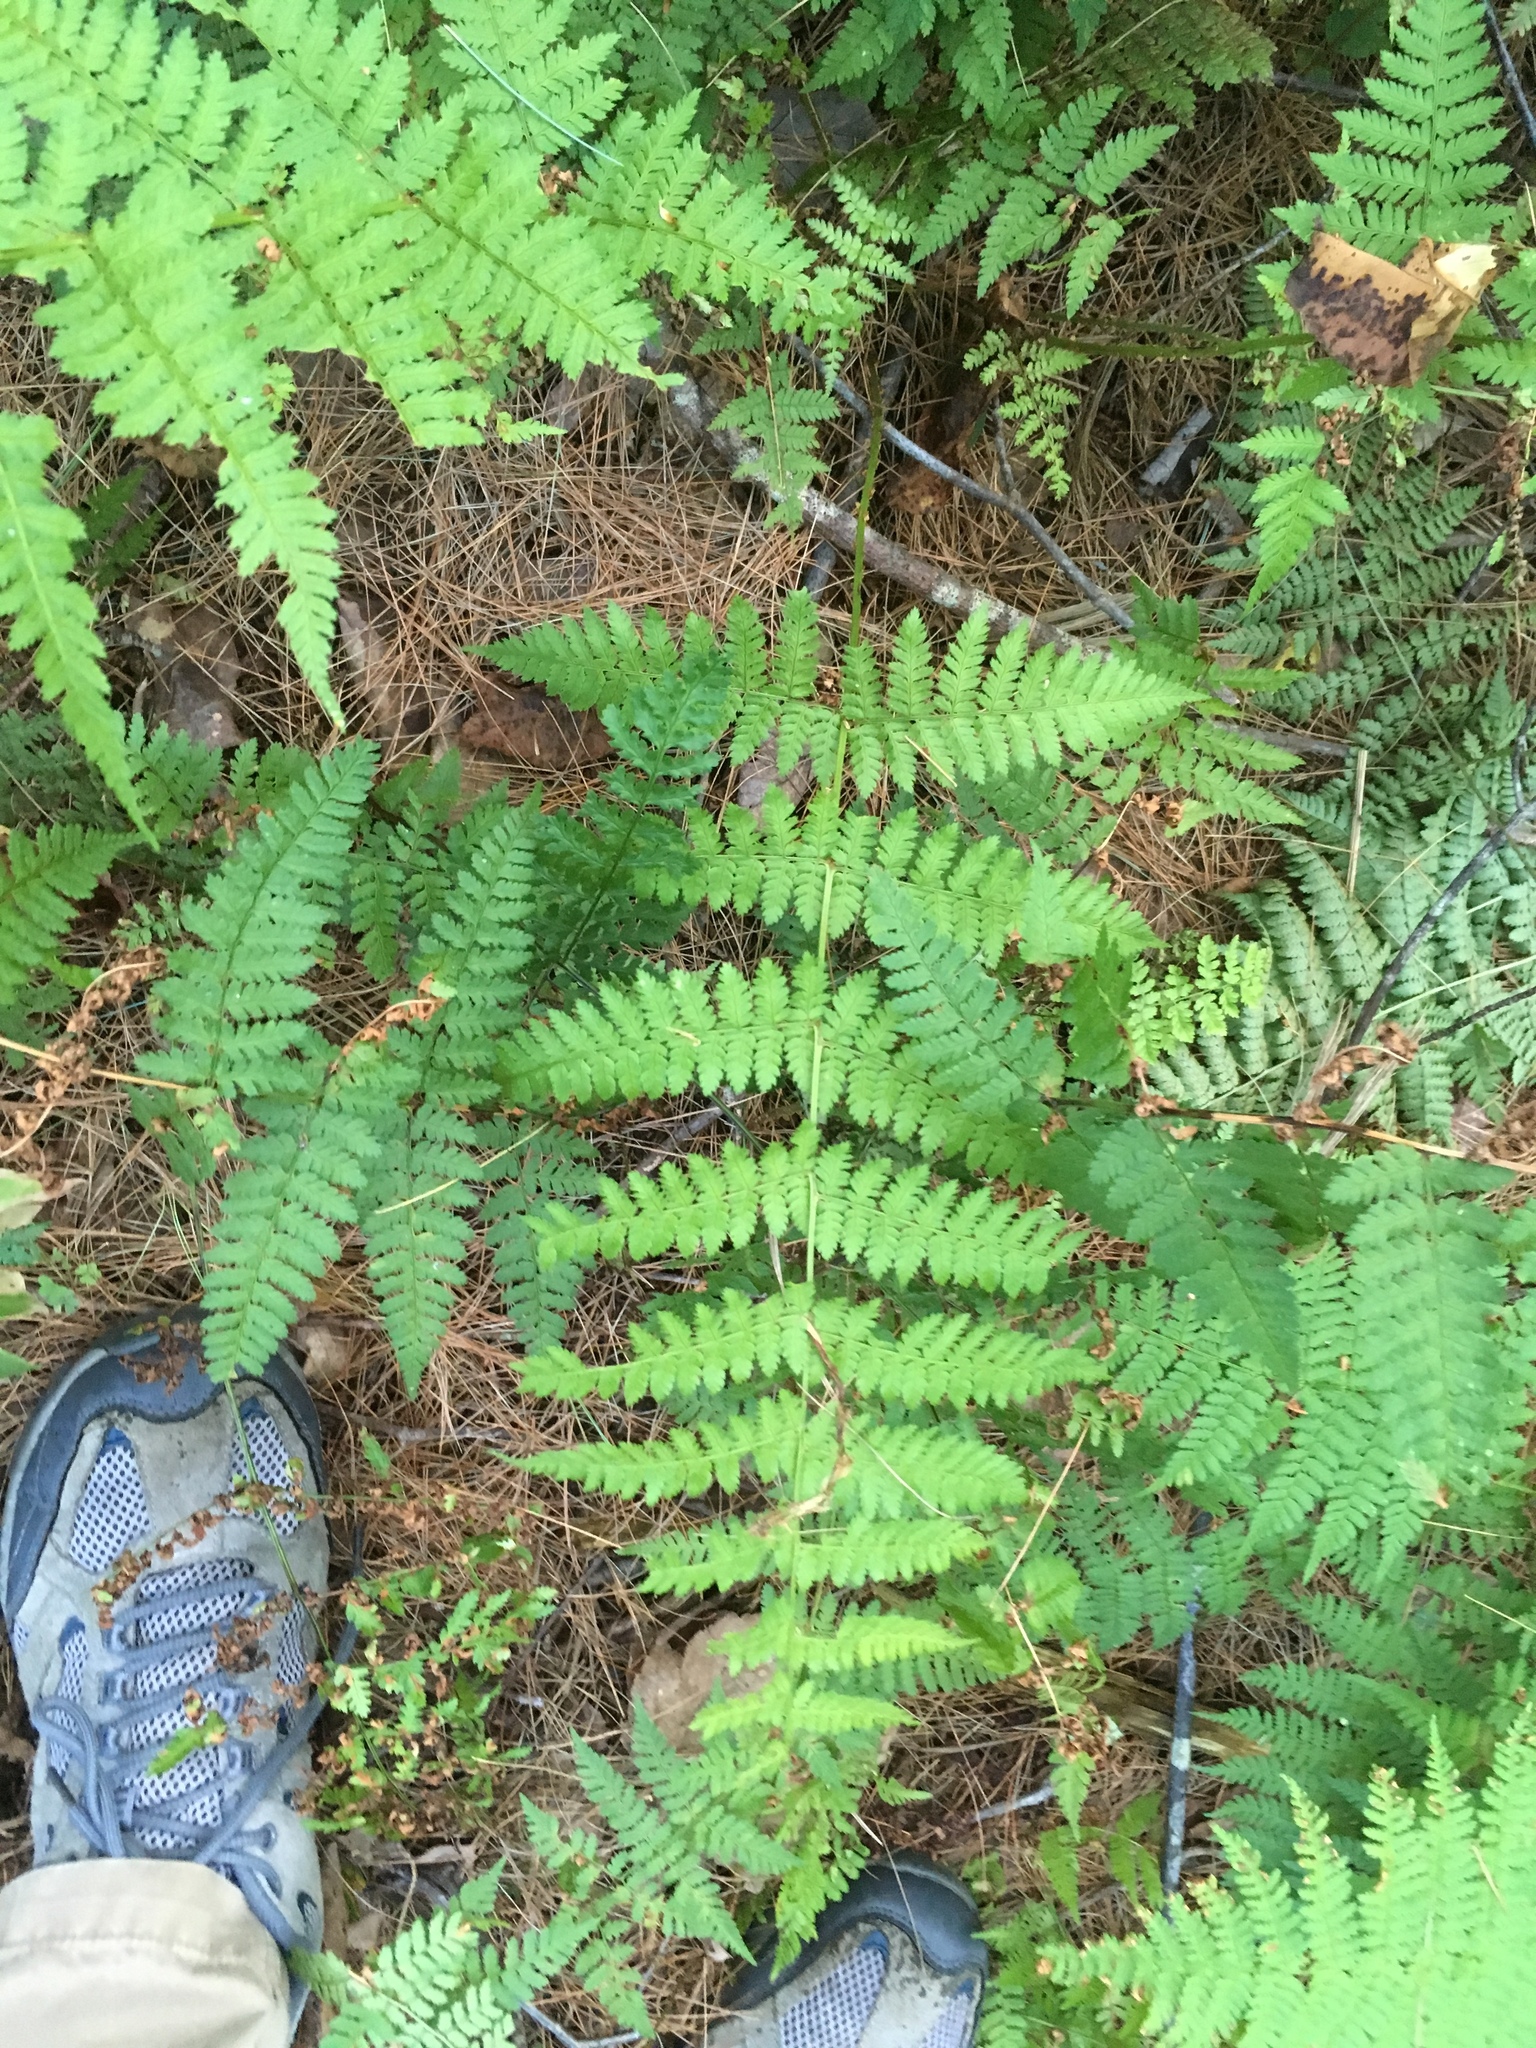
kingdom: Plantae
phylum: Tracheophyta
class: Polypodiopsida
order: Polypodiales
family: Dryopteridaceae
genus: Dryopteris
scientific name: Dryopteris intermedia
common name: Evergreen wood fern
